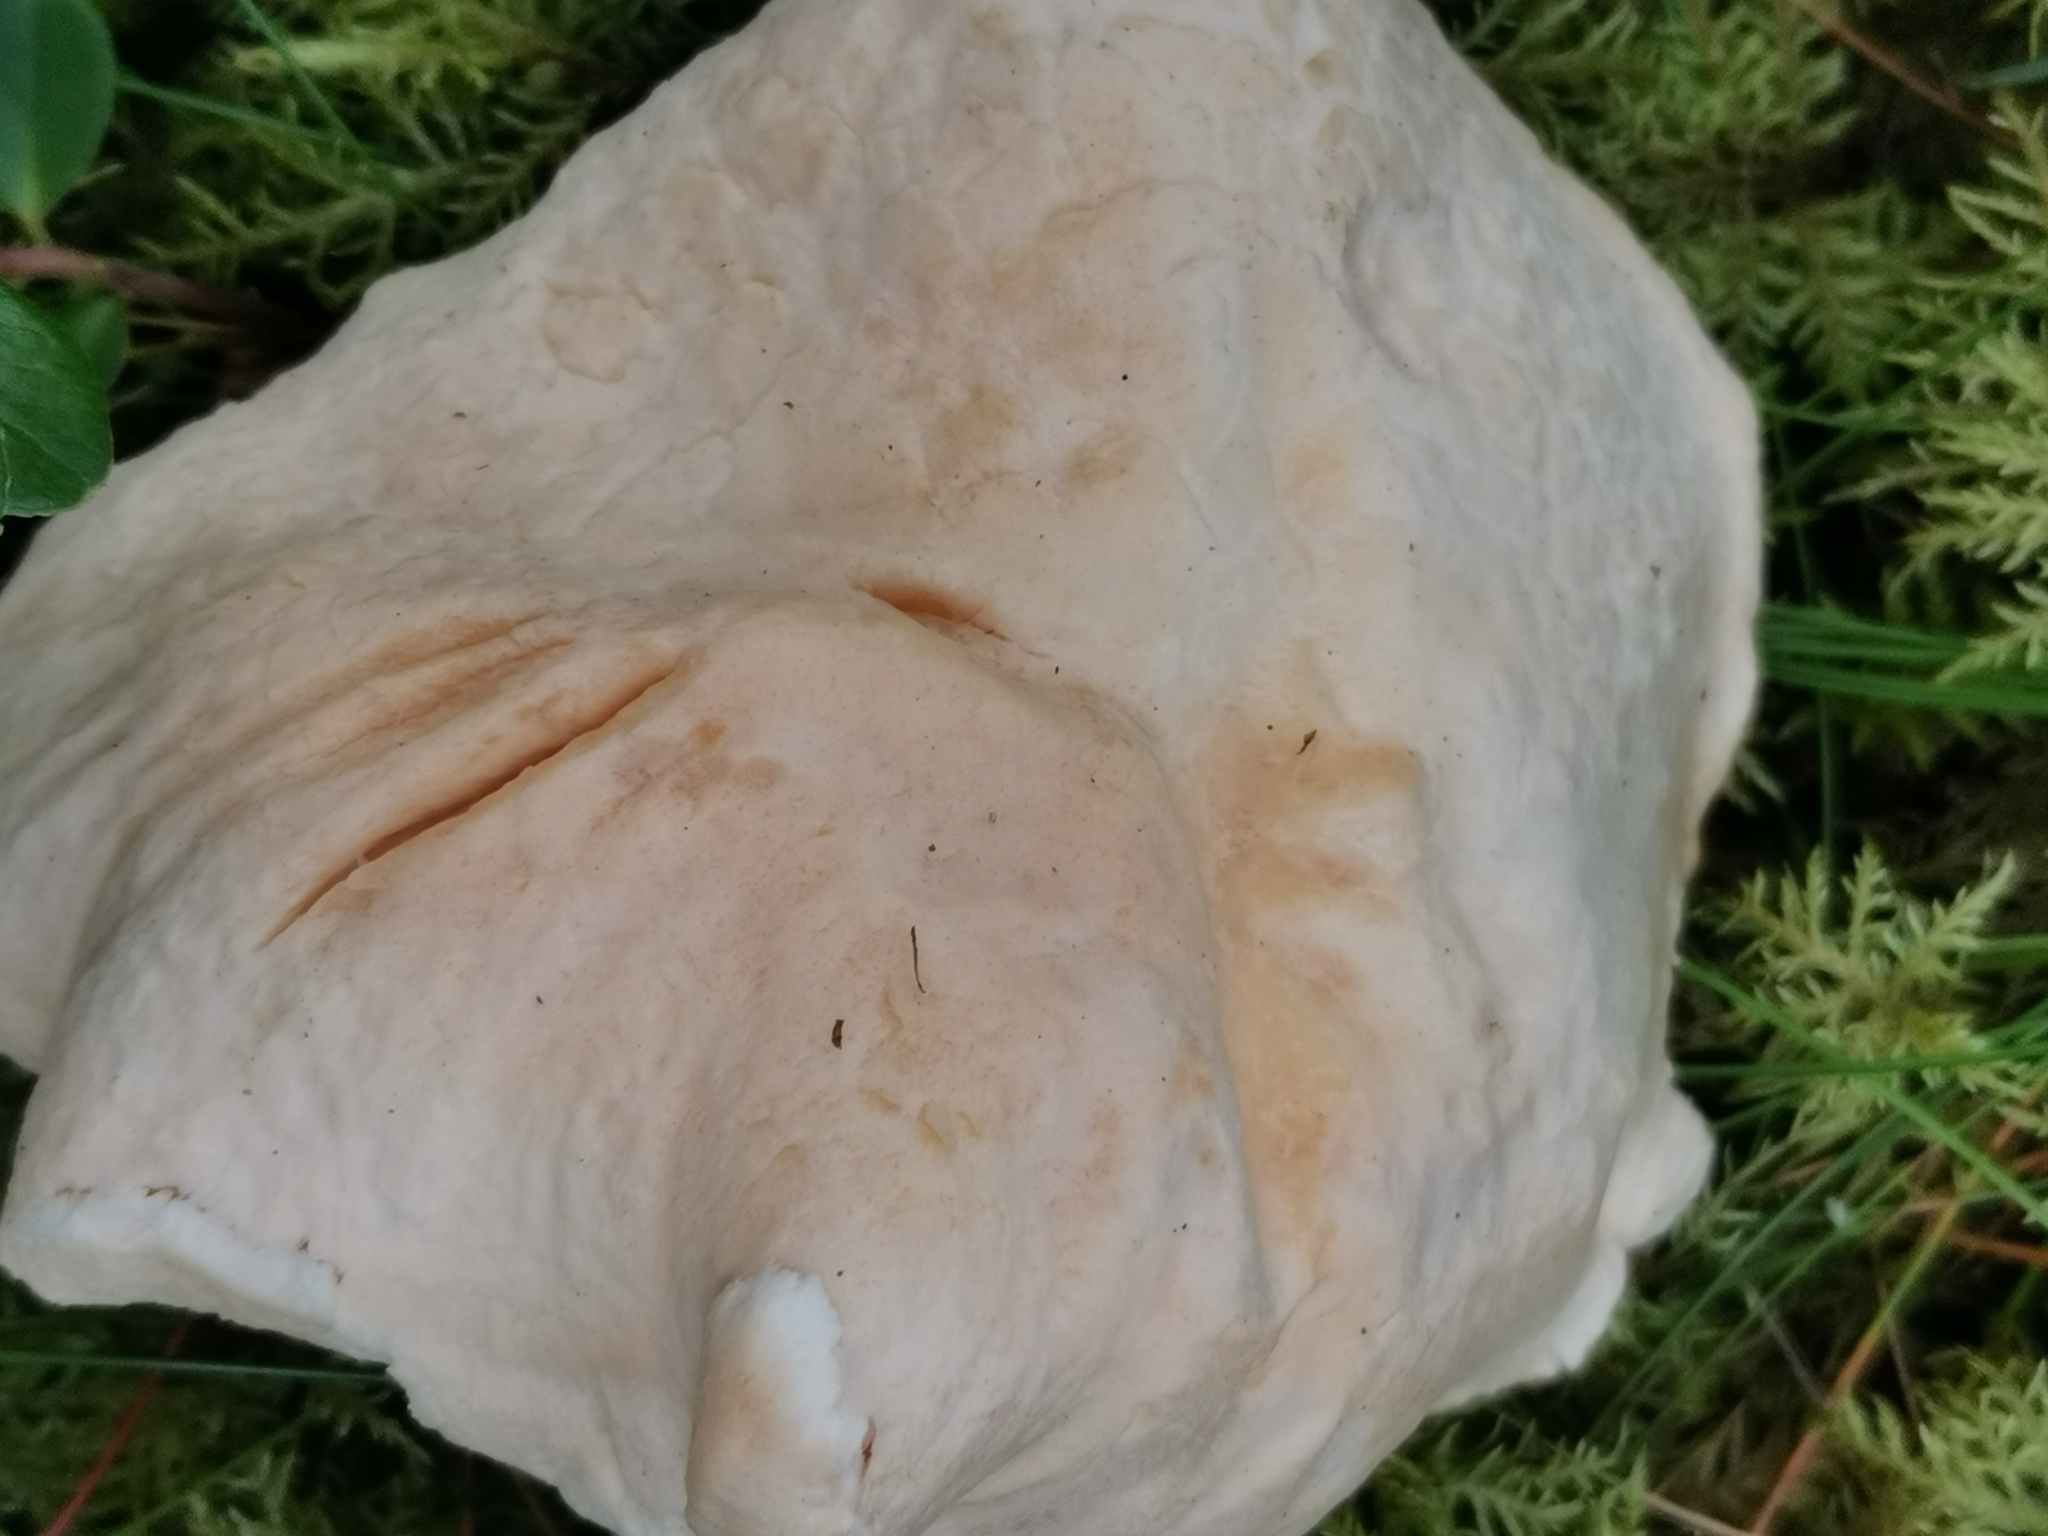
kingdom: Fungi
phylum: Basidiomycota
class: Agaricomycetes
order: Cantharellales
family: Hydnaceae
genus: Hydnum
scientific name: Hydnum repandum
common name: Wood hedgehog
